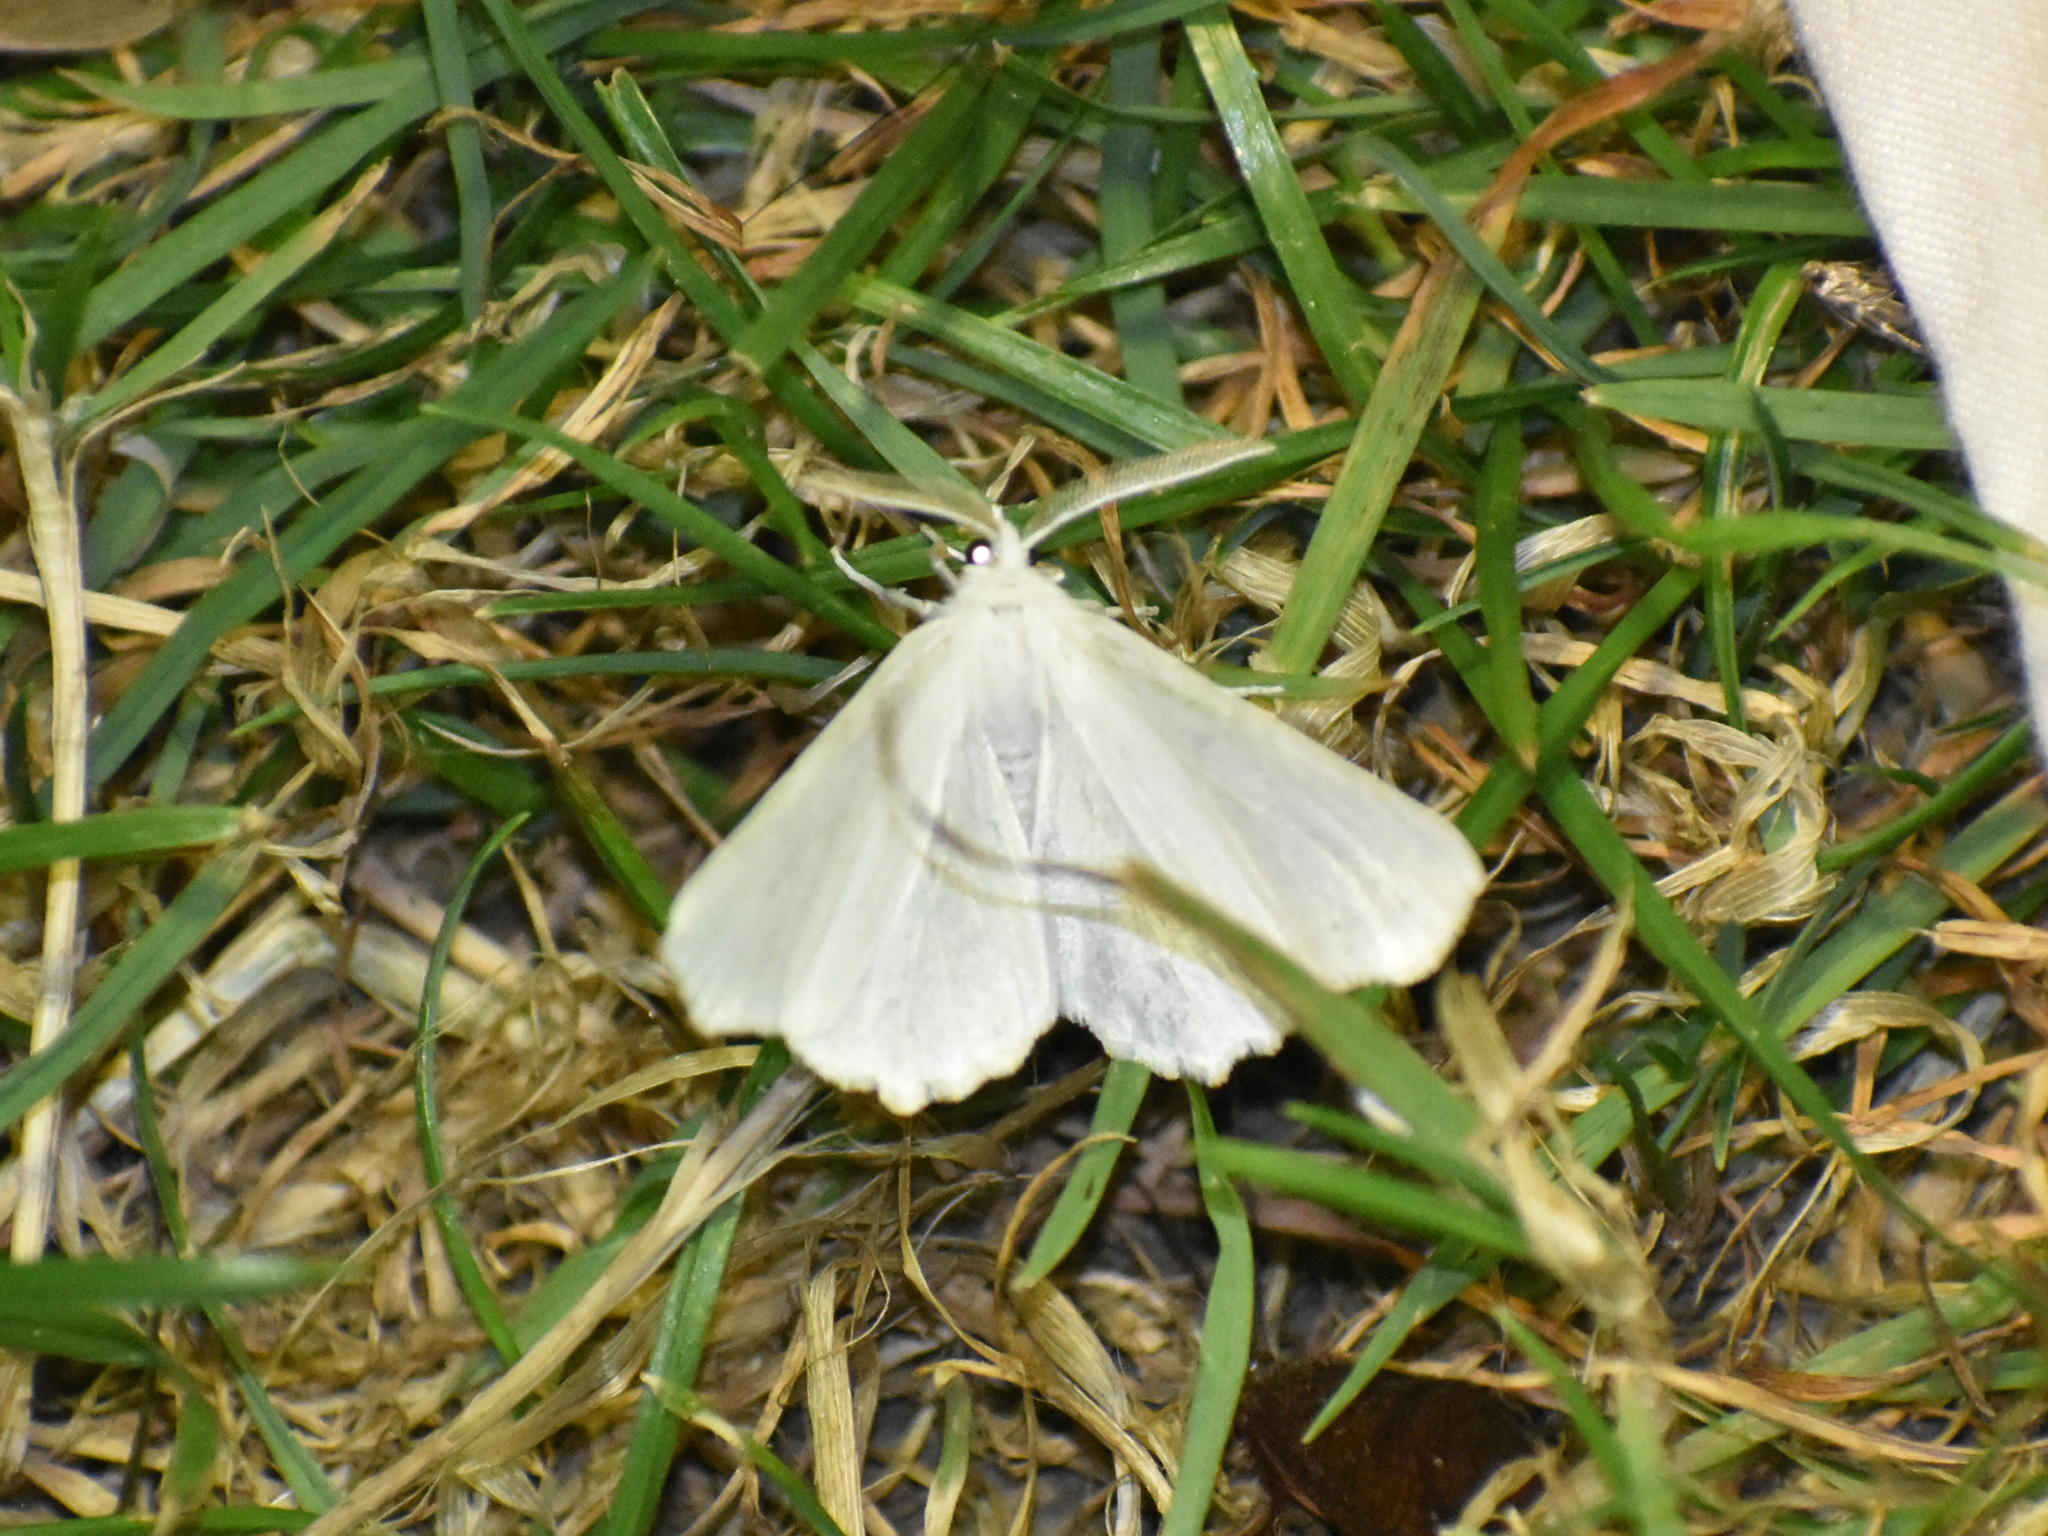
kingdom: Animalia
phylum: Arthropoda
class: Insecta
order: Lepidoptera
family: Geometridae
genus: Ennomos
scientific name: Ennomos subsignaria
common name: Elm spanworm
